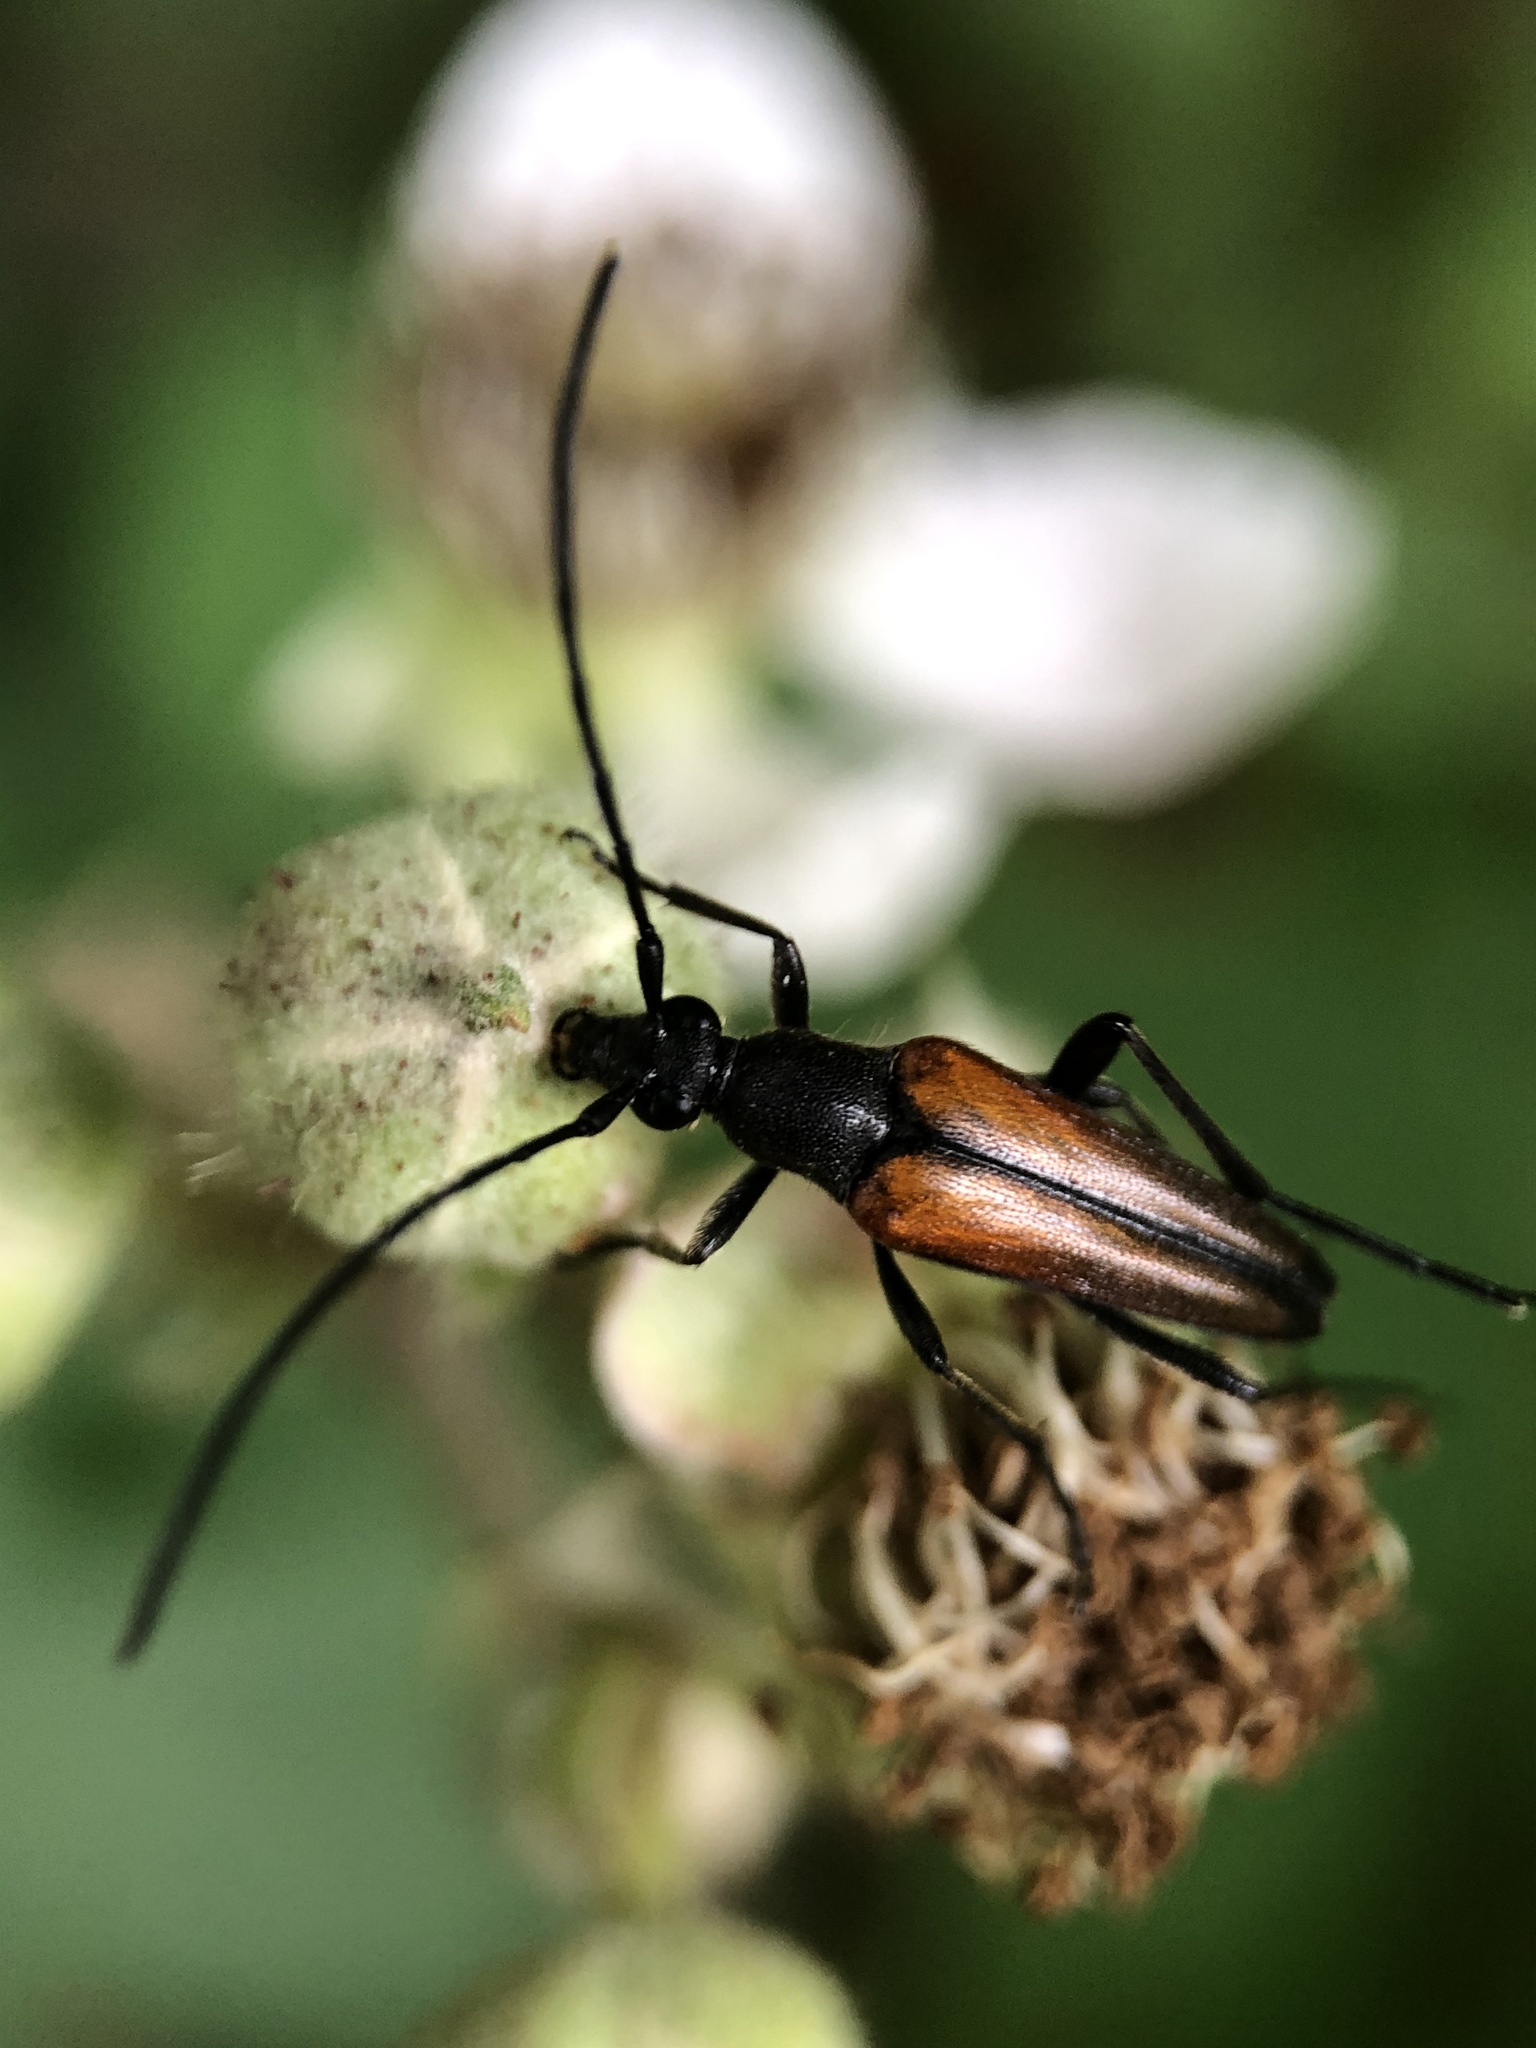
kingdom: Animalia
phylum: Arthropoda
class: Insecta
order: Coleoptera
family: Cerambycidae
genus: Stenurella
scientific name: Stenurella melanura
